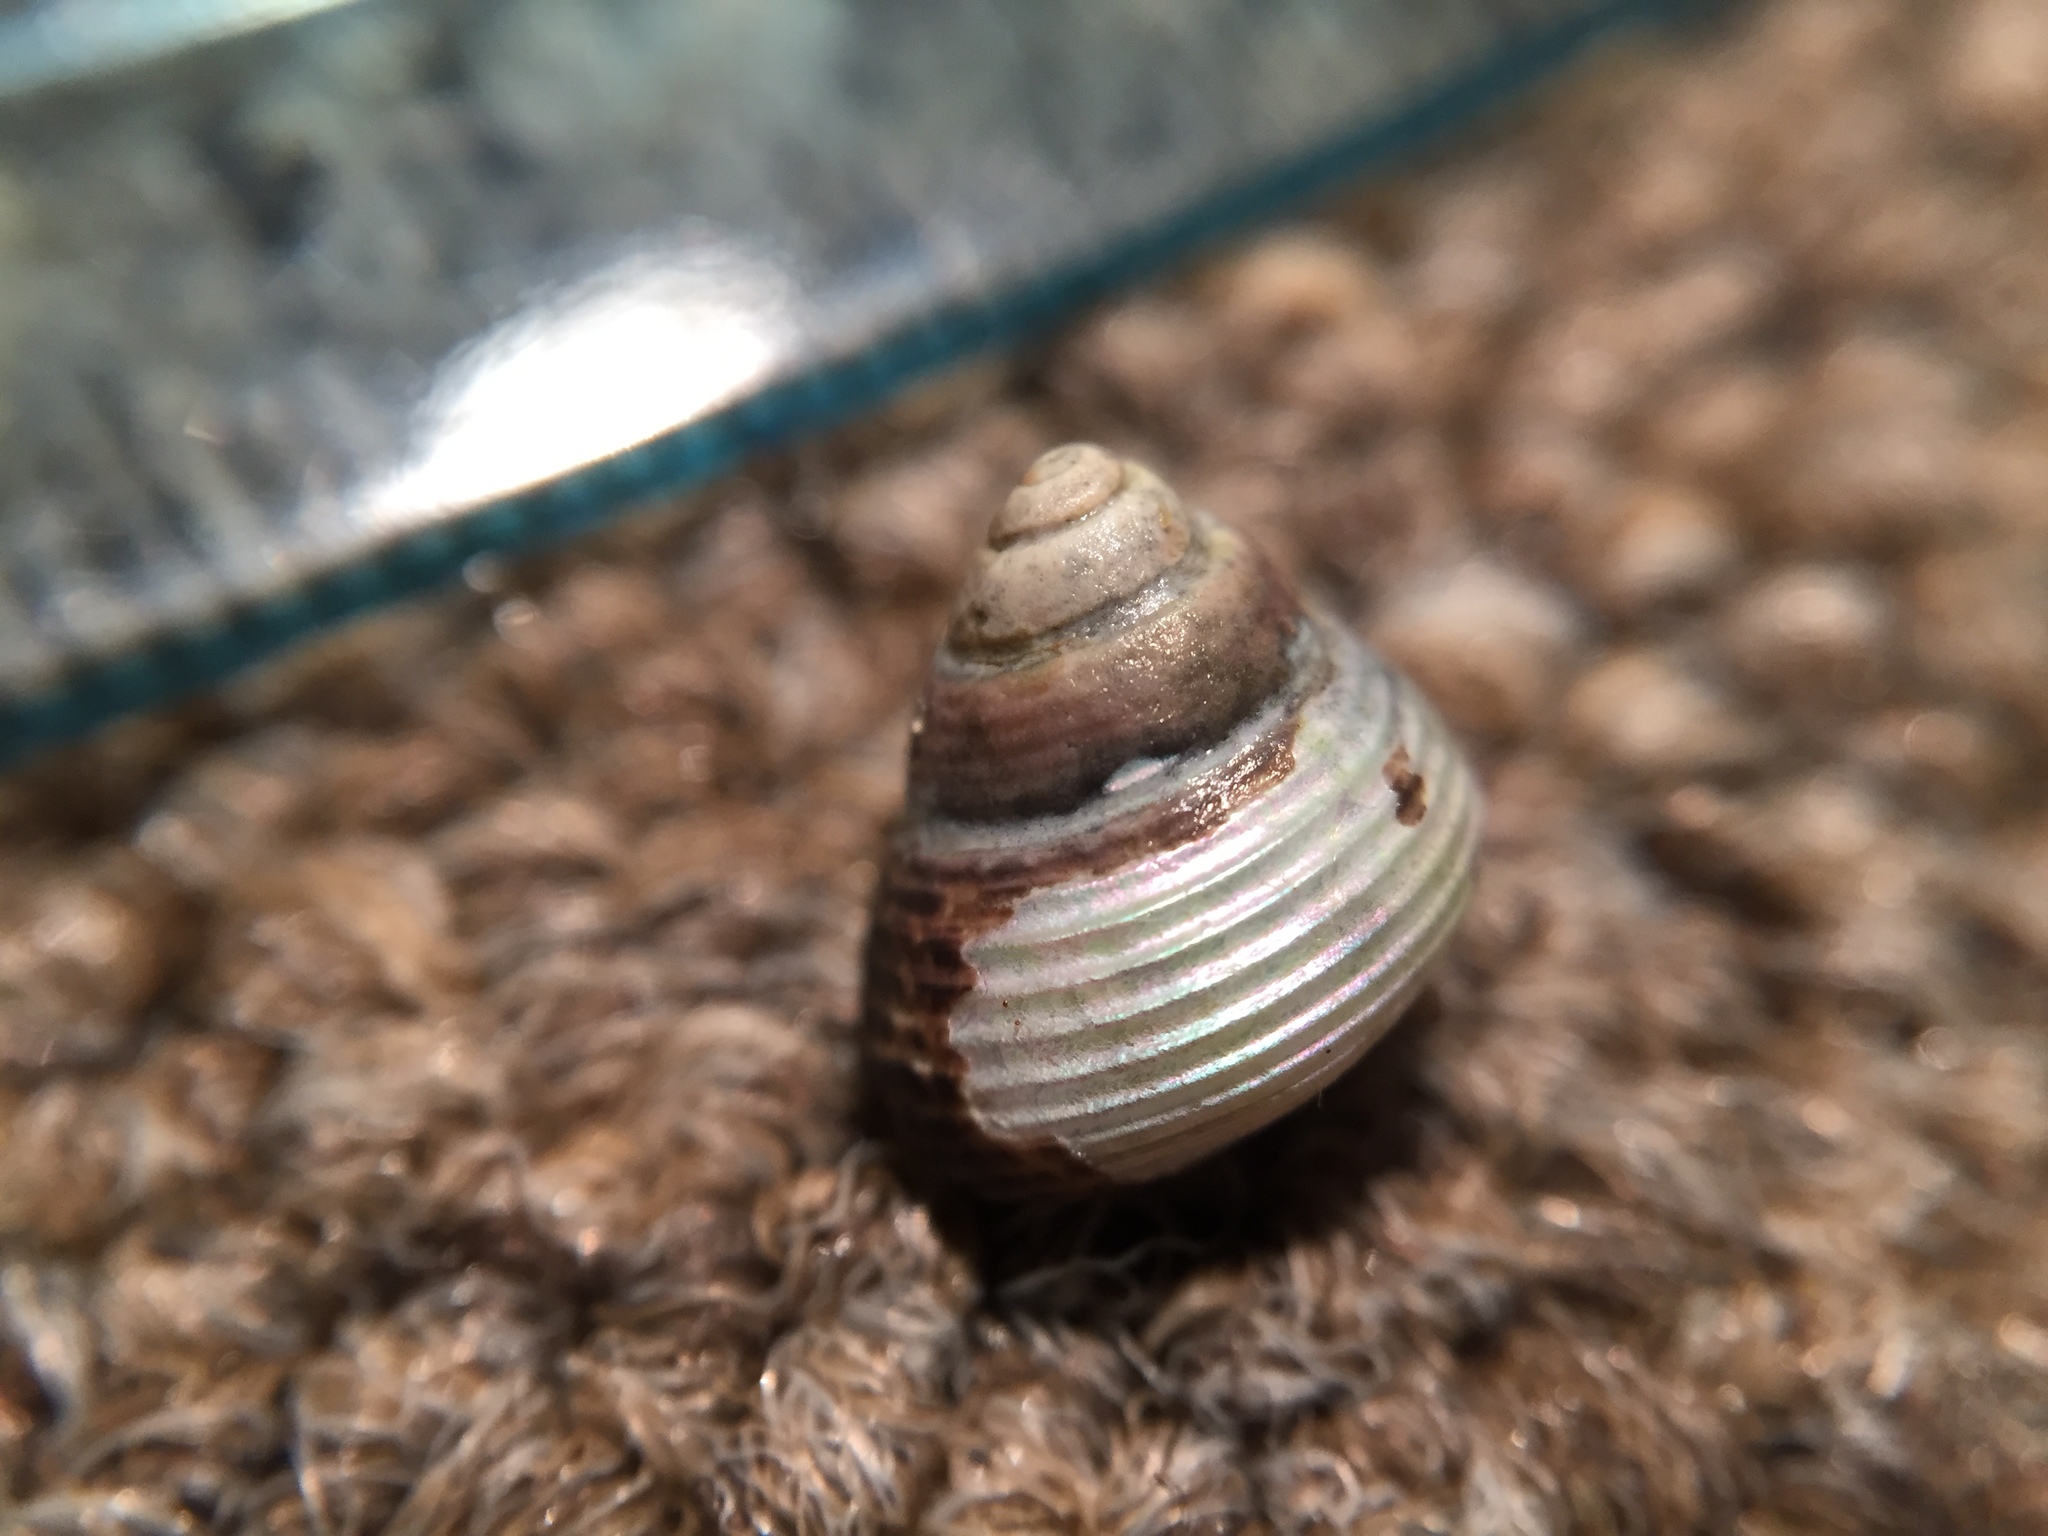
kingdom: Animalia
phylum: Mollusca
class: Gastropoda
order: Trochida
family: Trochidae
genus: Micrelenchus
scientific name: Micrelenchus huttonii
